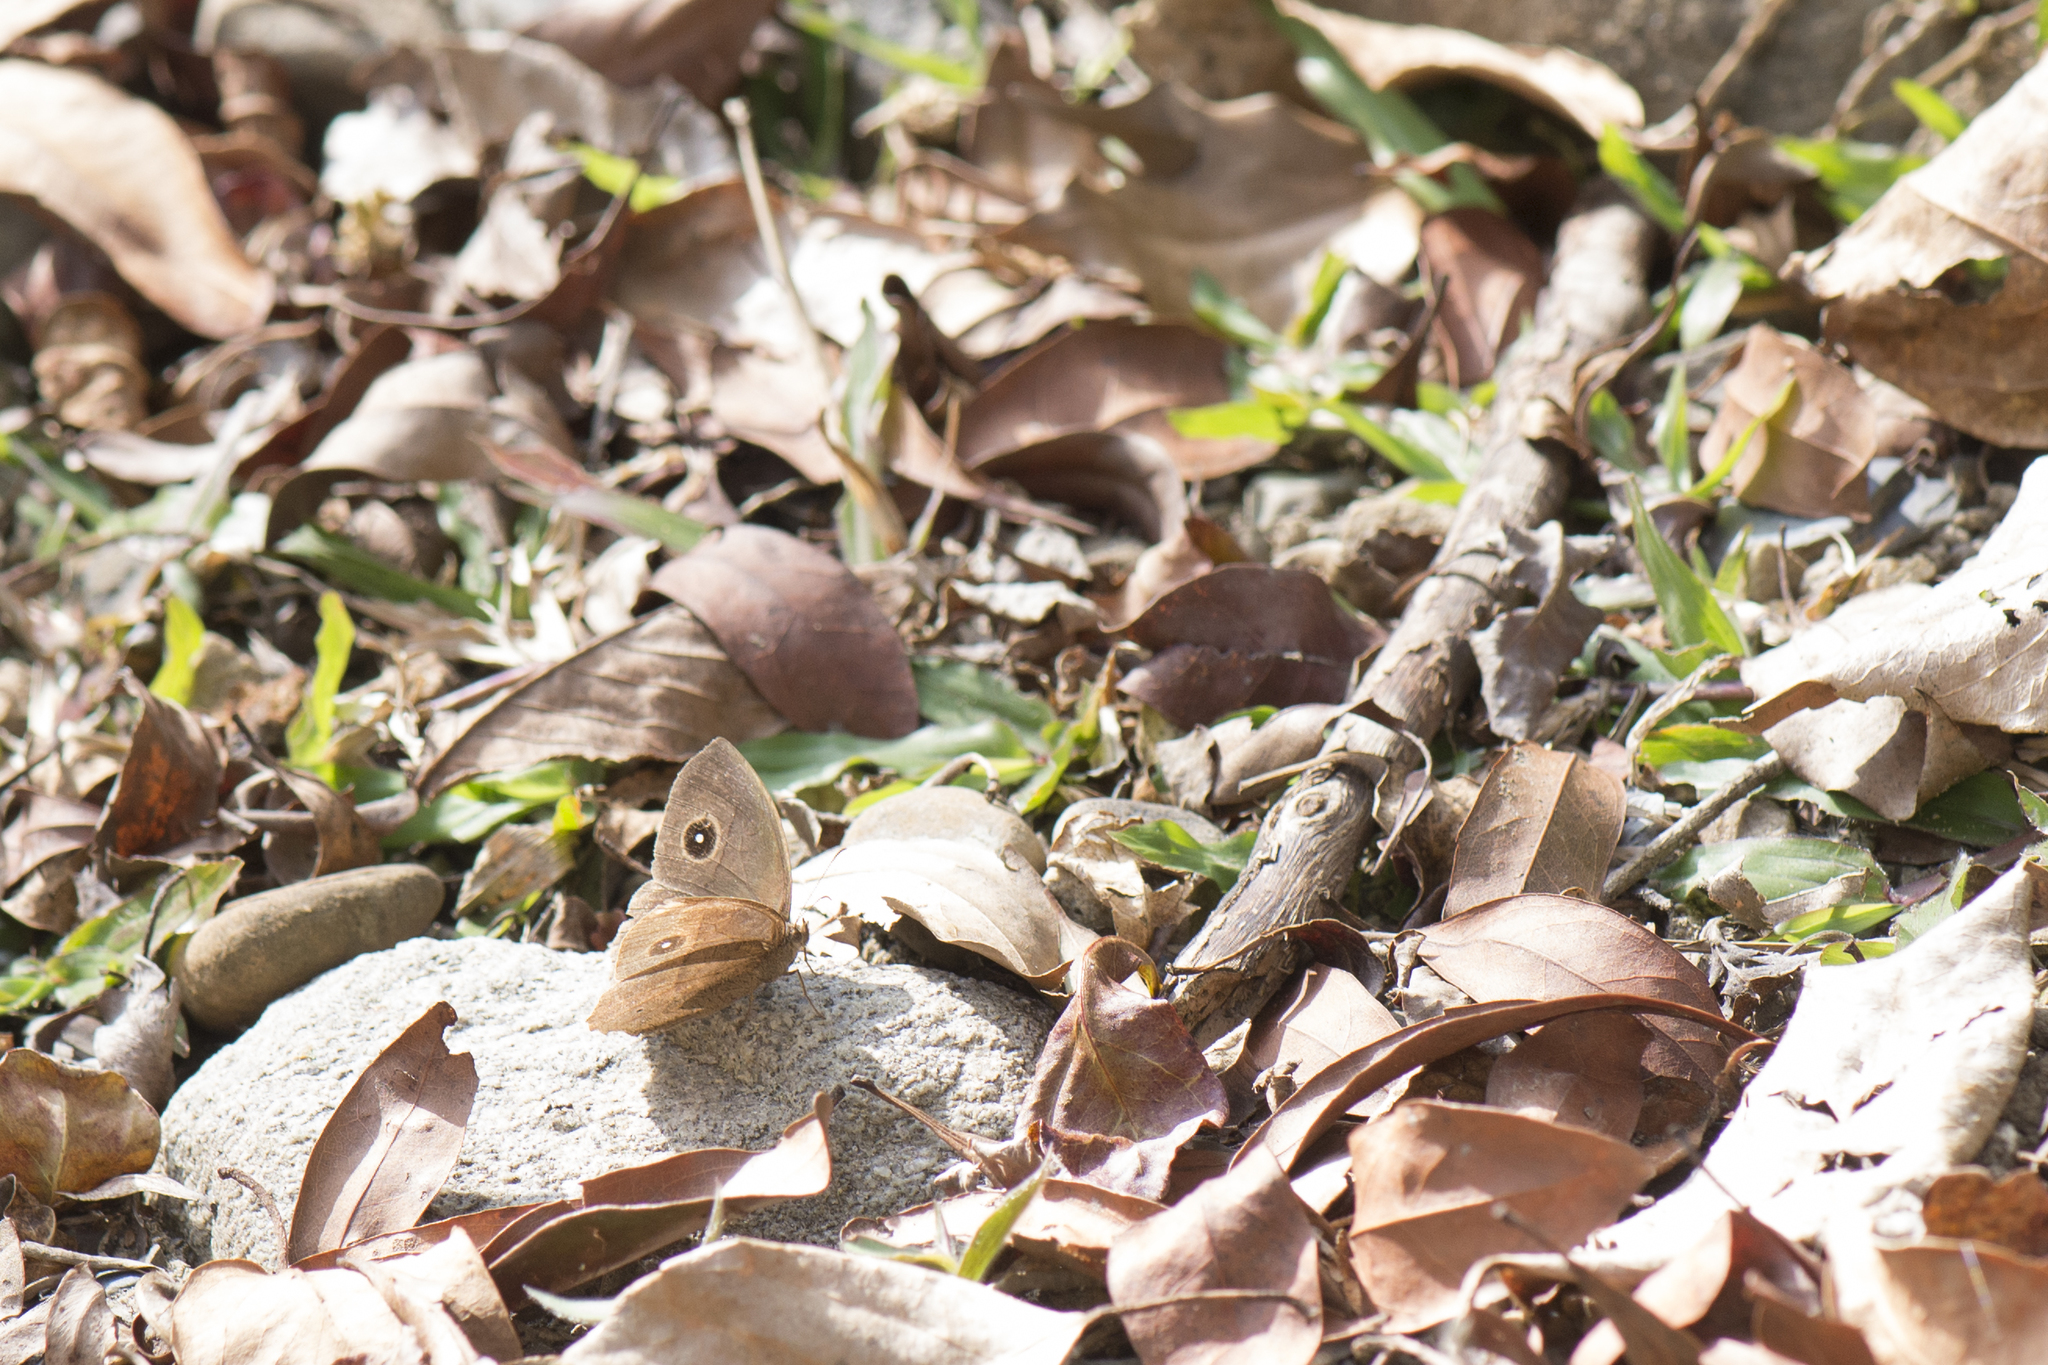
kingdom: Animalia
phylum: Arthropoda
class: Insecta
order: Lepidoptera
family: Nymphalidae
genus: Mycalesis
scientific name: Mycalesis horsfieldii
